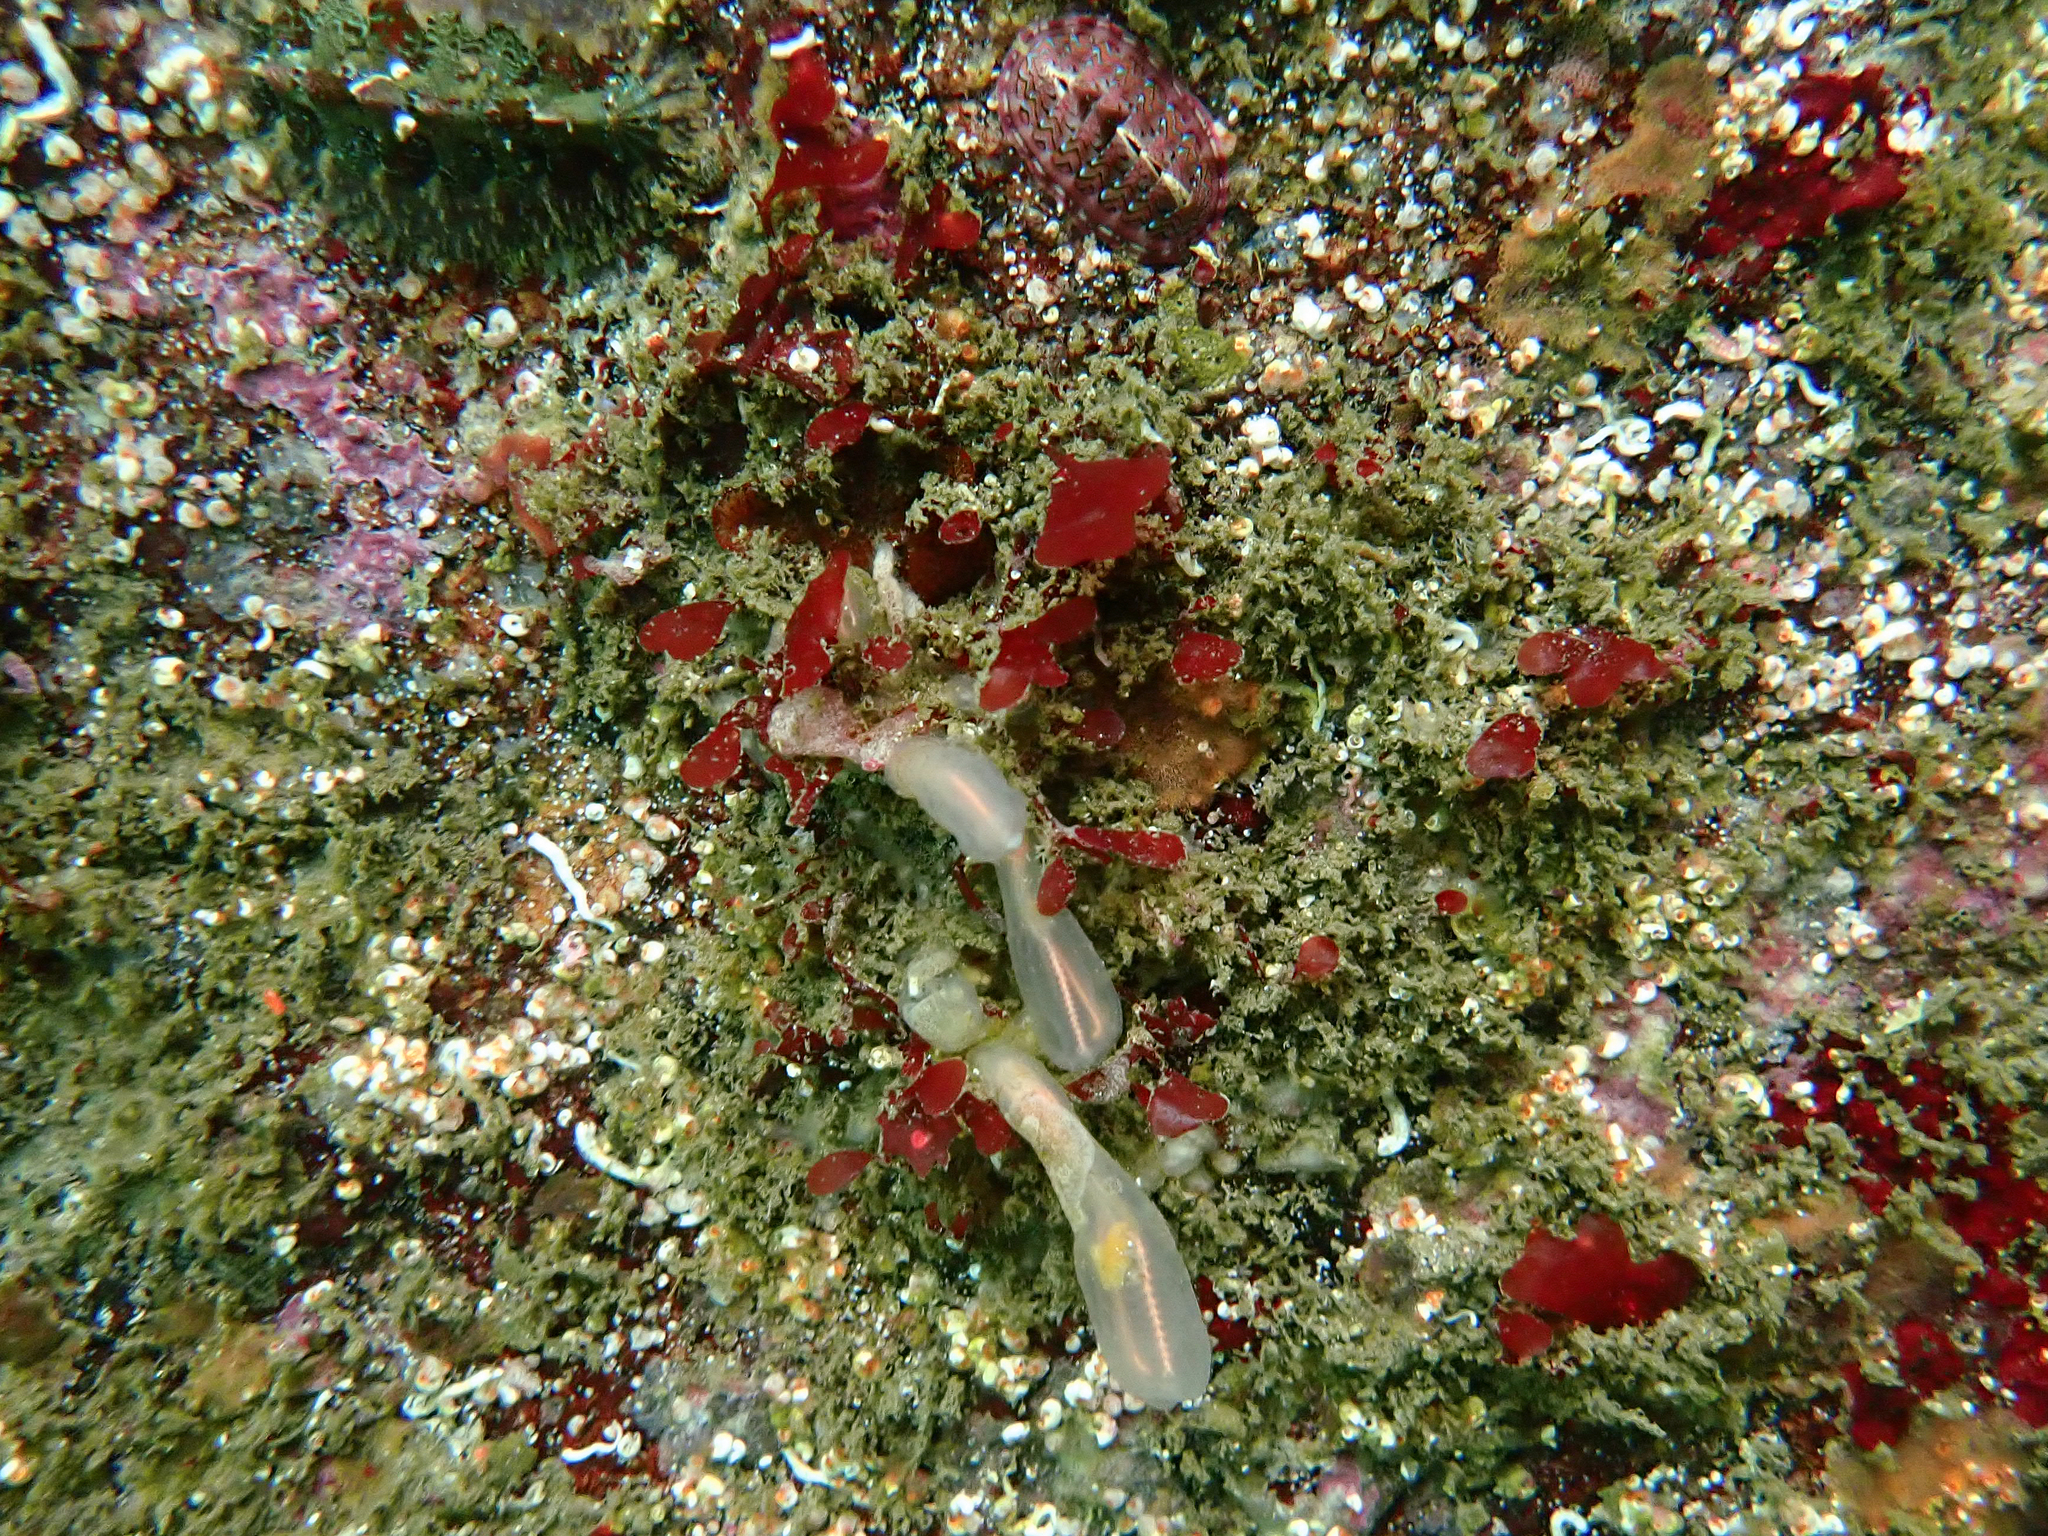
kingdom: Animalia
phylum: Mollusca
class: Polyplacophora
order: Chitonida
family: Tonicellidae
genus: Tonicella
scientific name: Tonicella lokii
